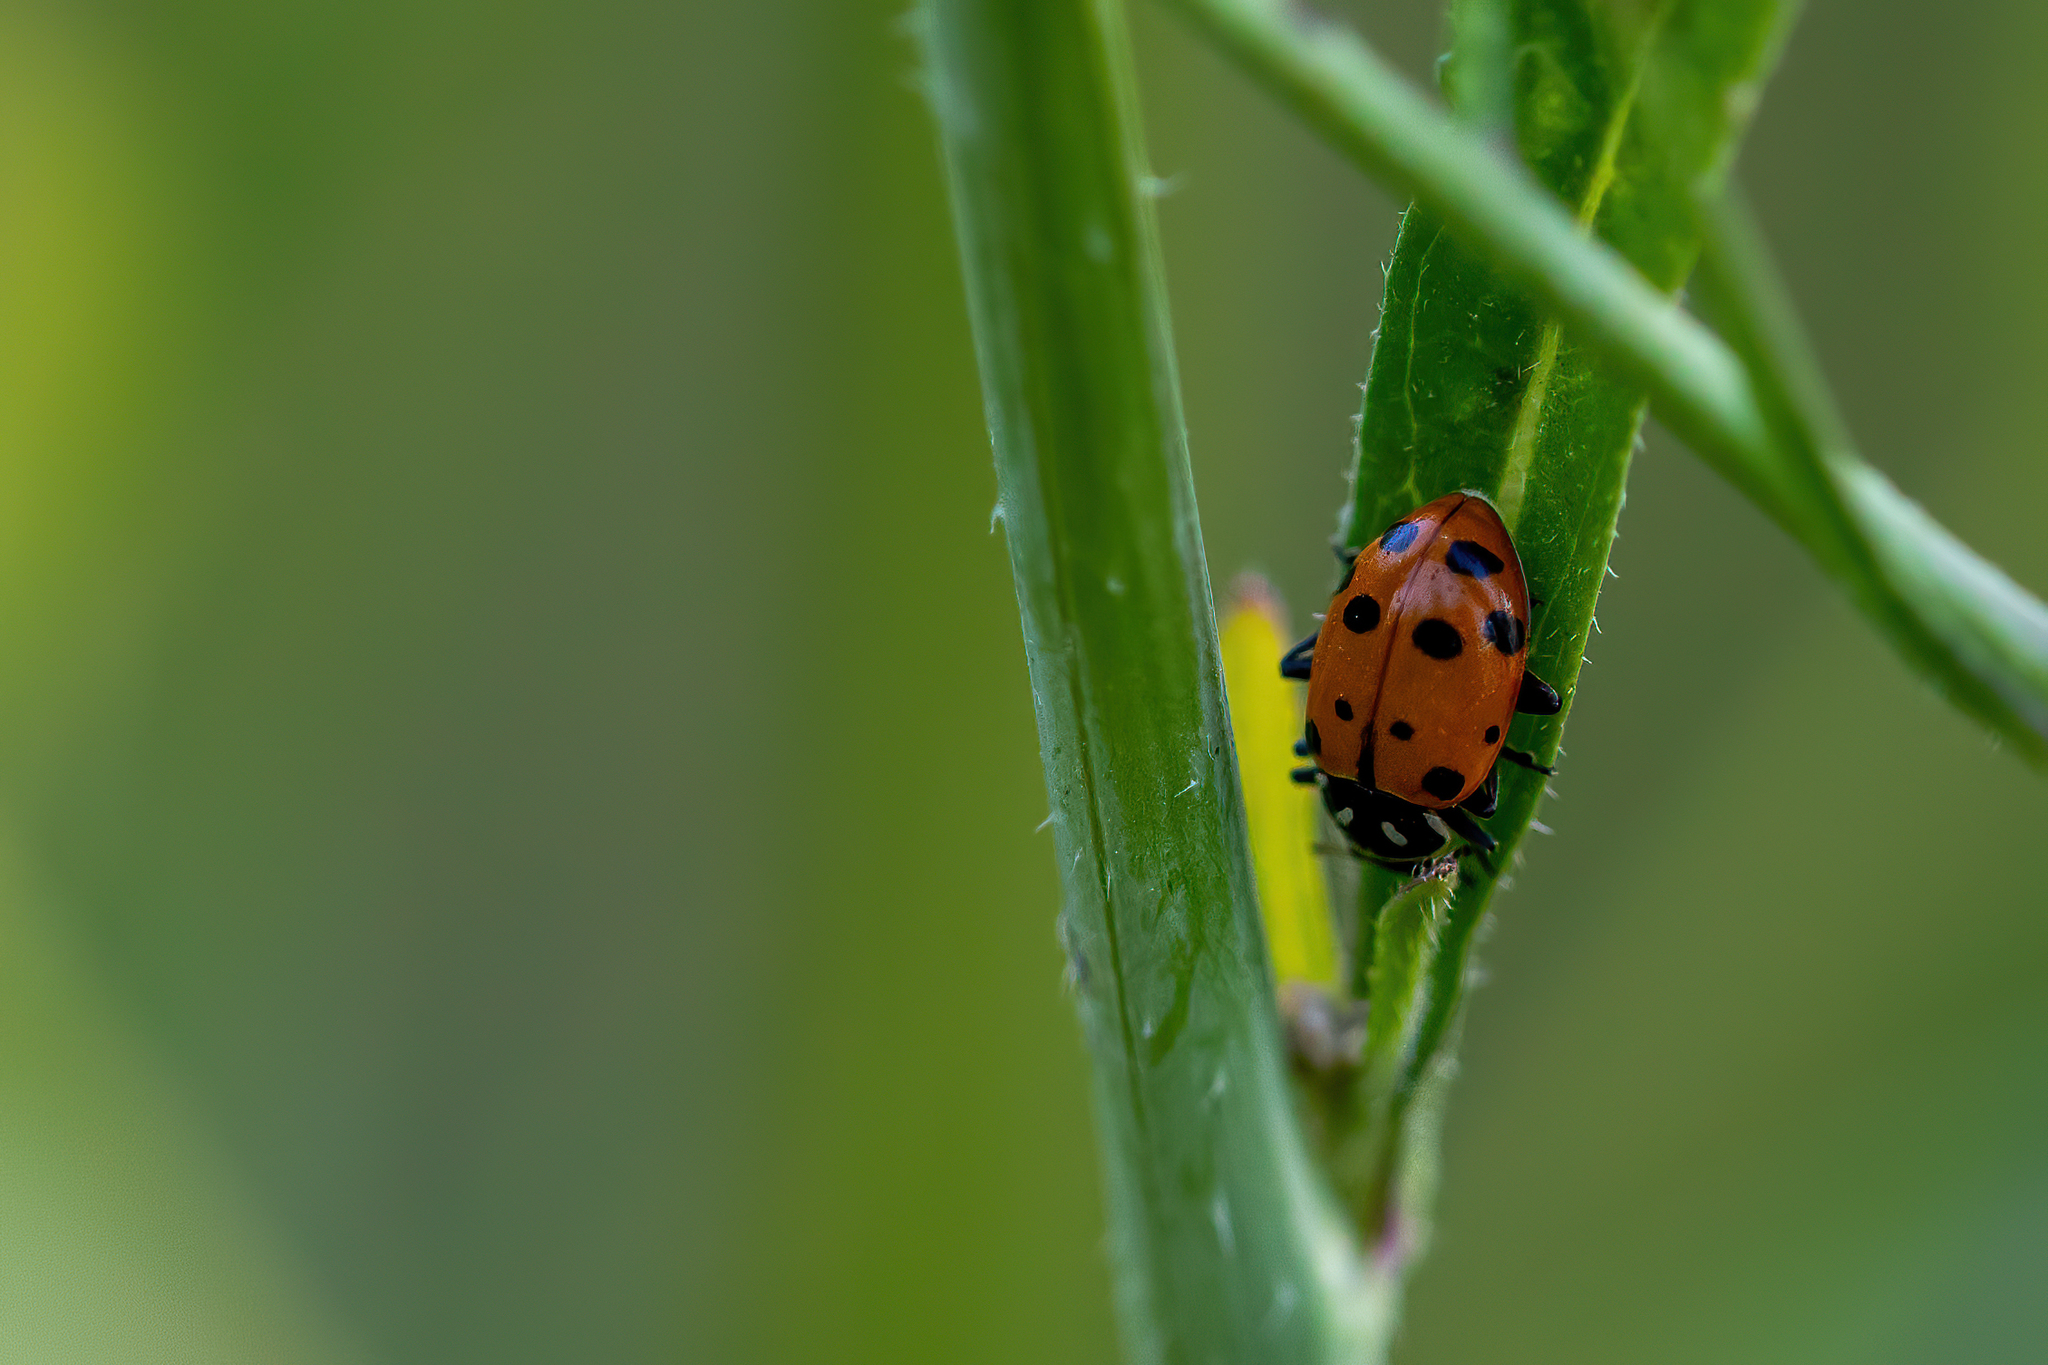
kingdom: Animalia
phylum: Arthropoda
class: Insecta
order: Coleoptera
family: Coccinellidae
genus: Hippodamia
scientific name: Hippodamia convergens
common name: Convergent lady beetle
